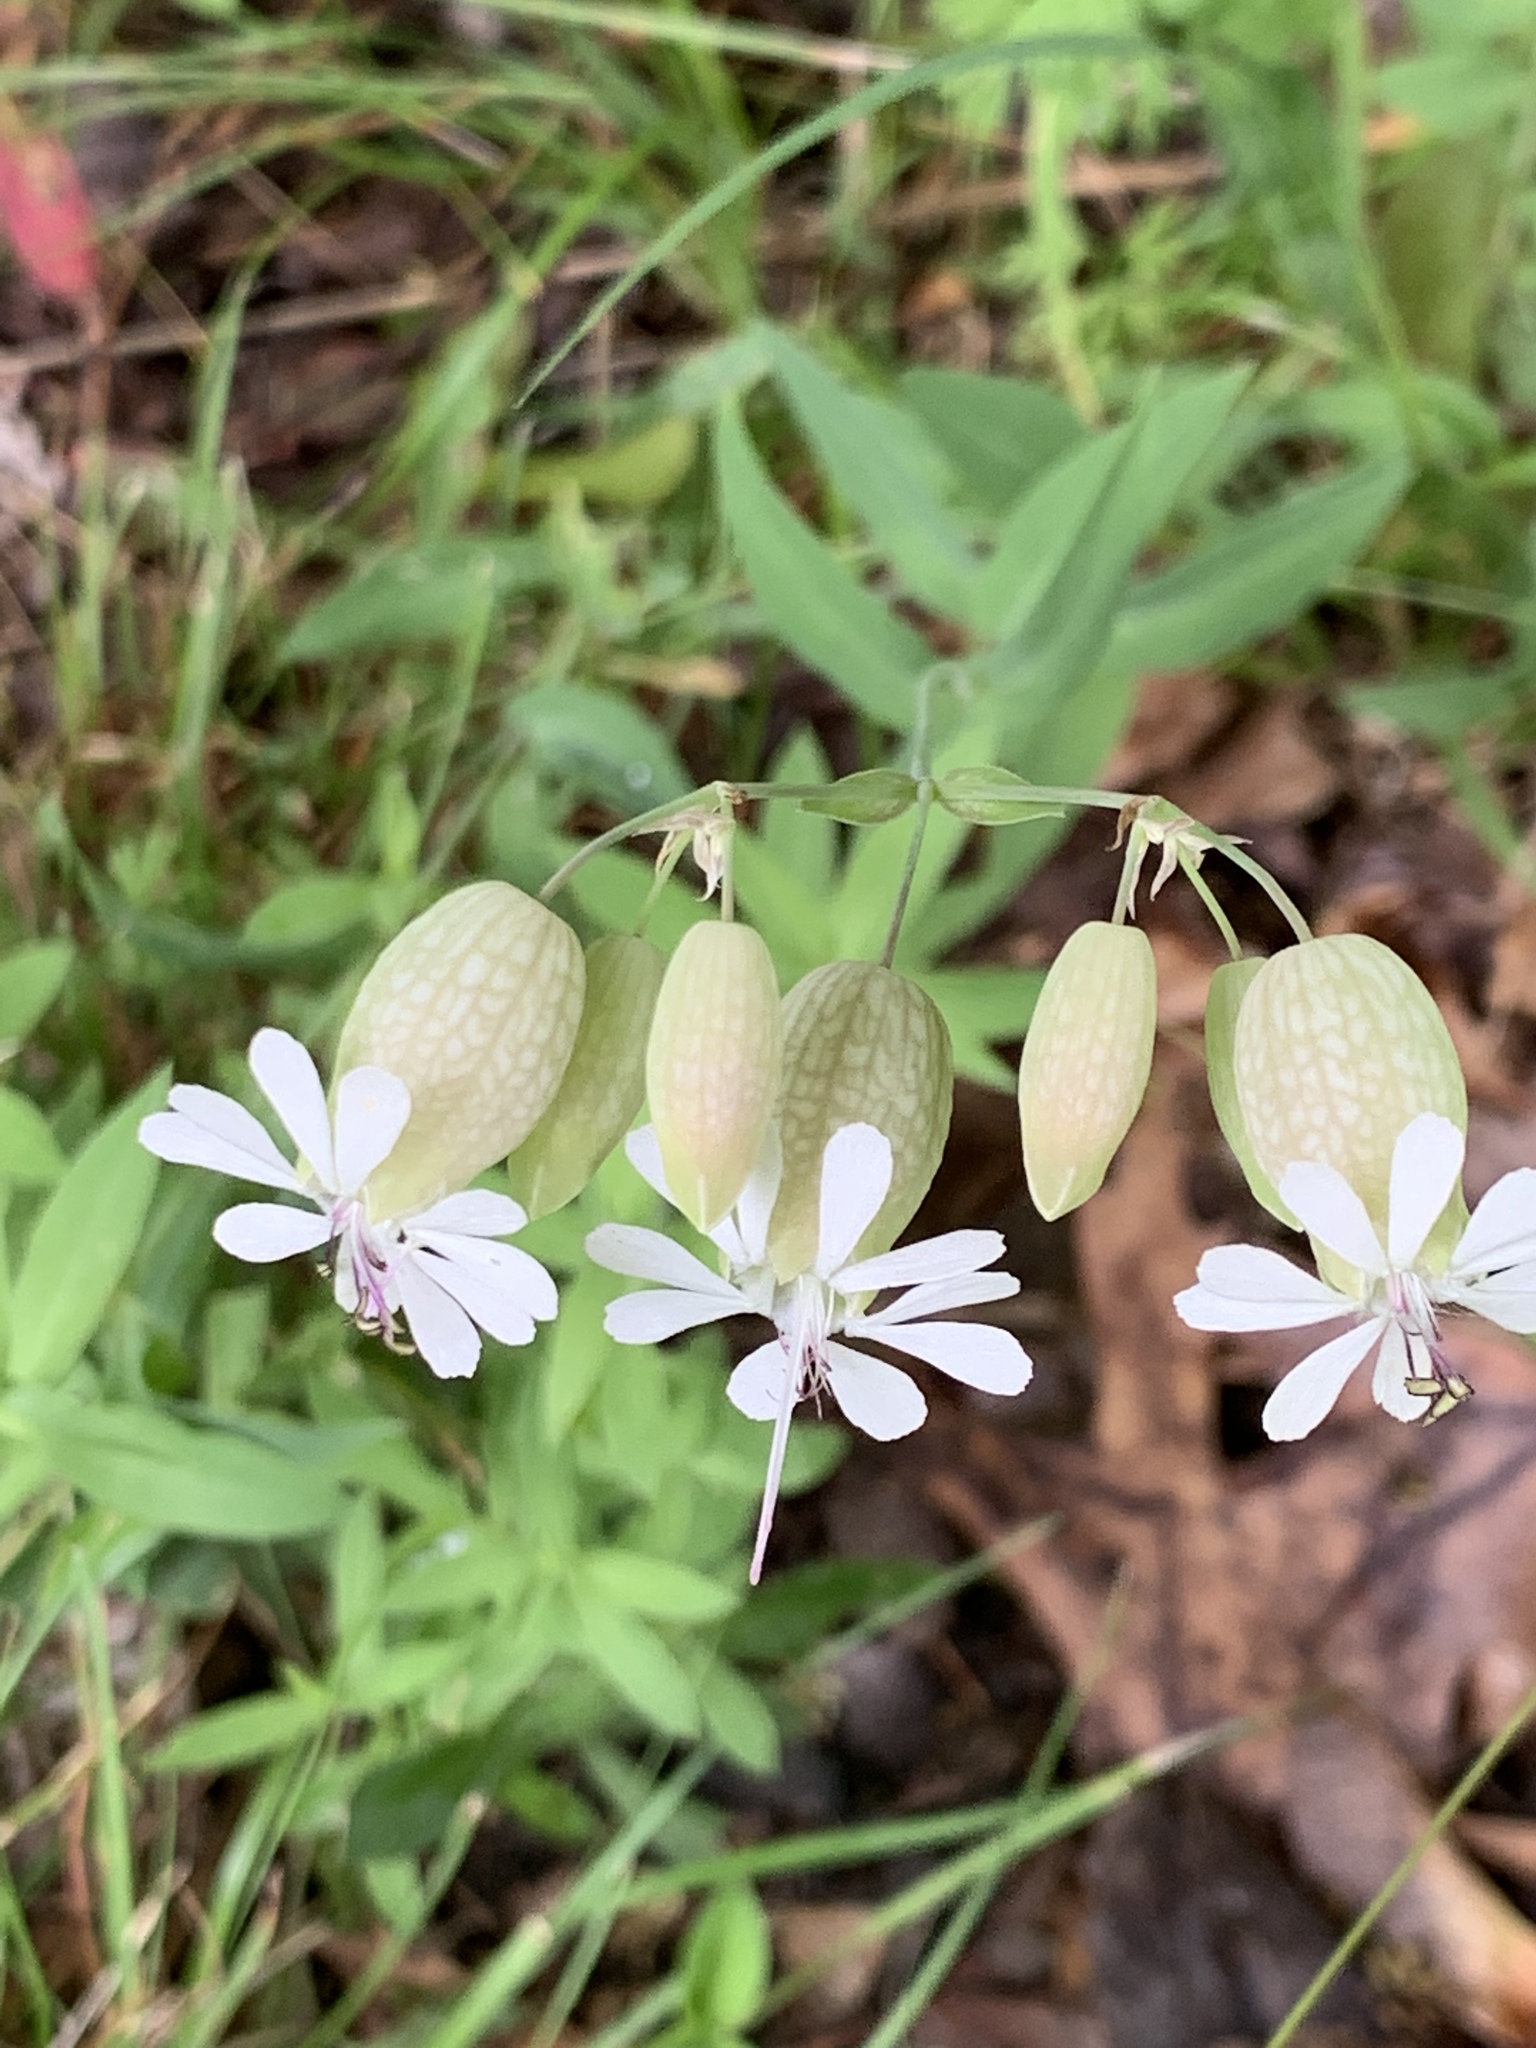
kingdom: Plantae
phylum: Tracheophyta
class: Magnoliopsida
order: Caryophyllales
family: Caryophyllaceae
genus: Silene
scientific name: Silene vulgaris
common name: Bladder campion
